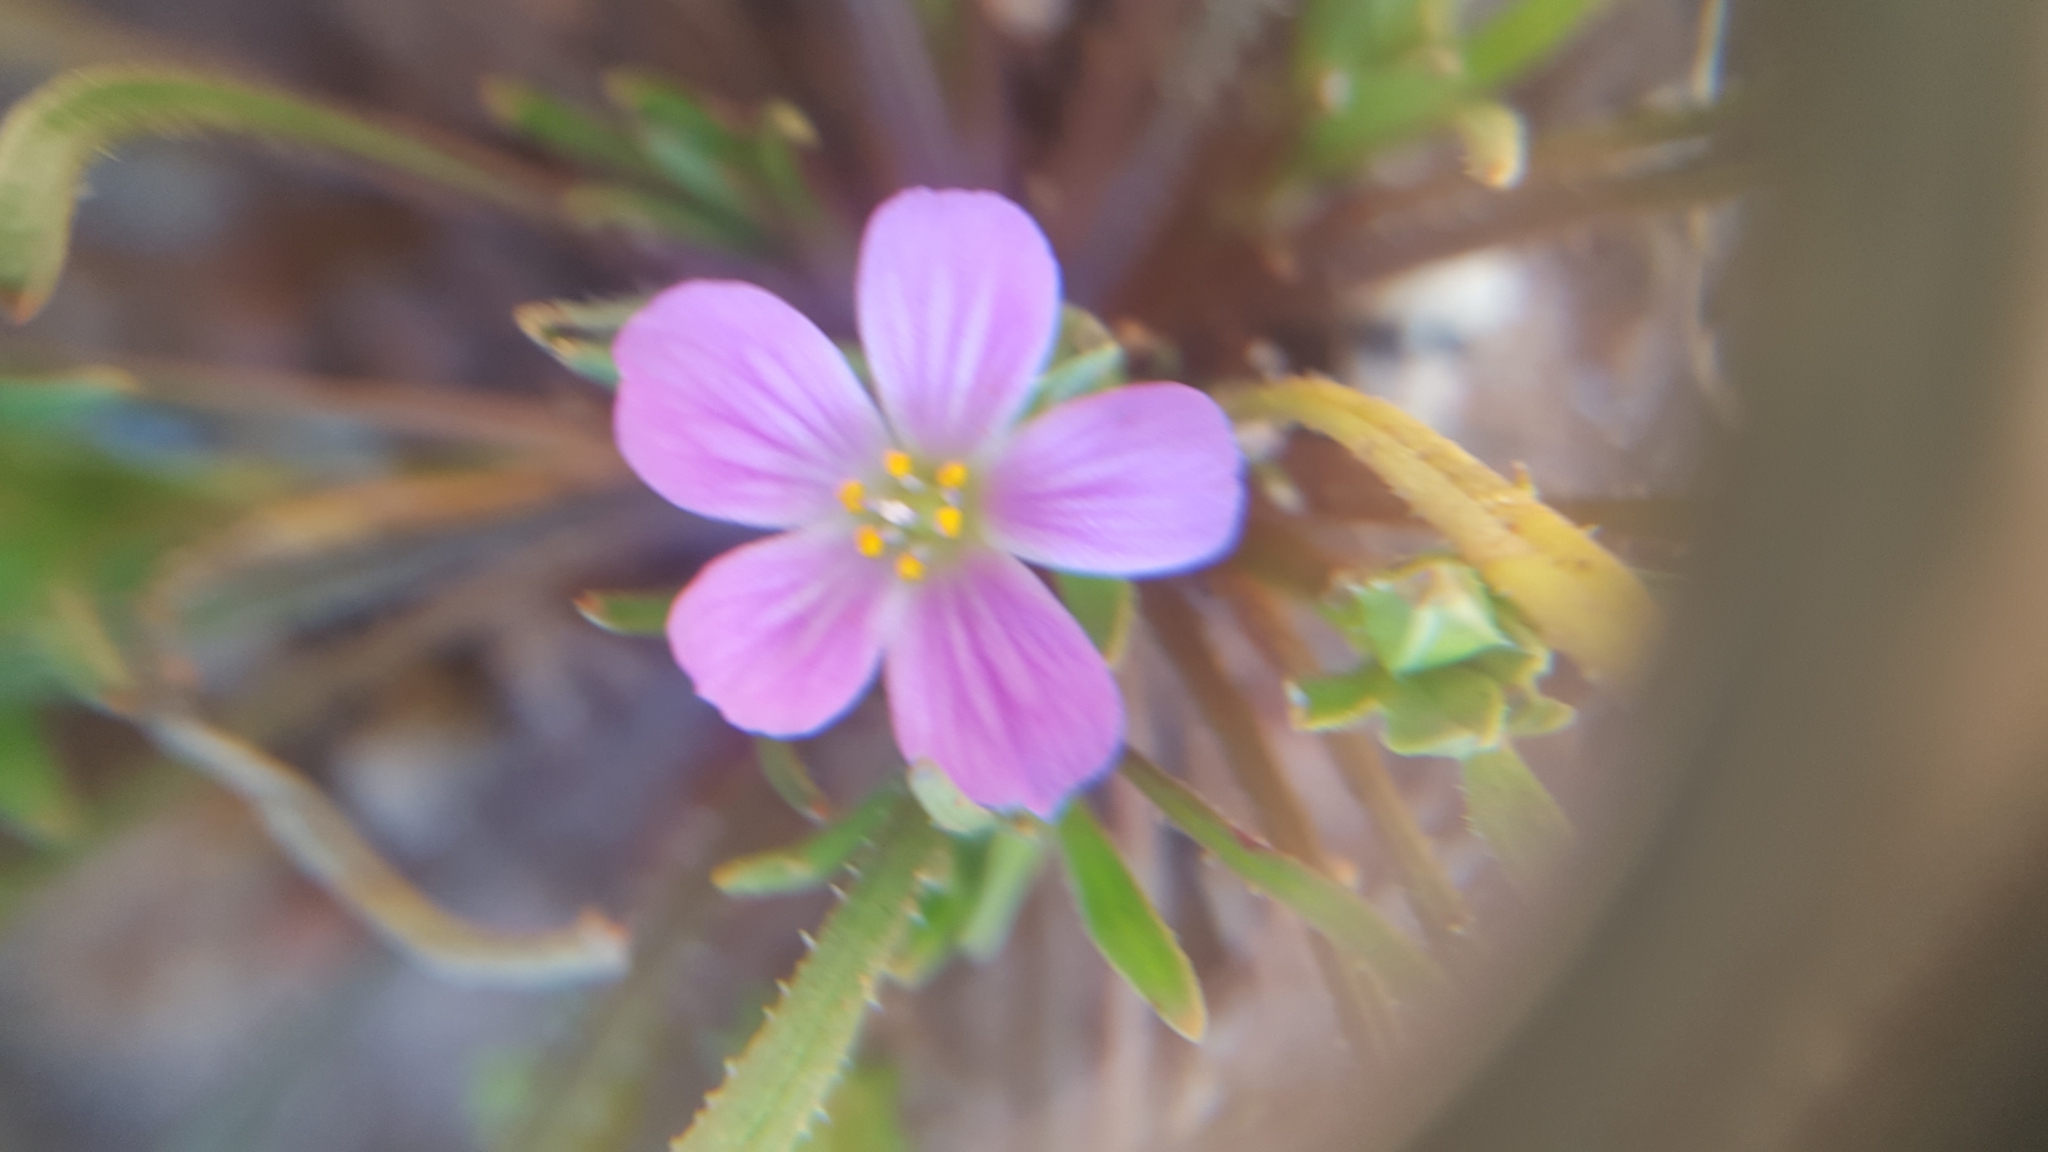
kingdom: Plantae
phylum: Tracheophyta
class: Magnoliopsida
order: Caryophyllales
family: Montiaceae
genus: Calandrinia
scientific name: Calandrinia breweri
